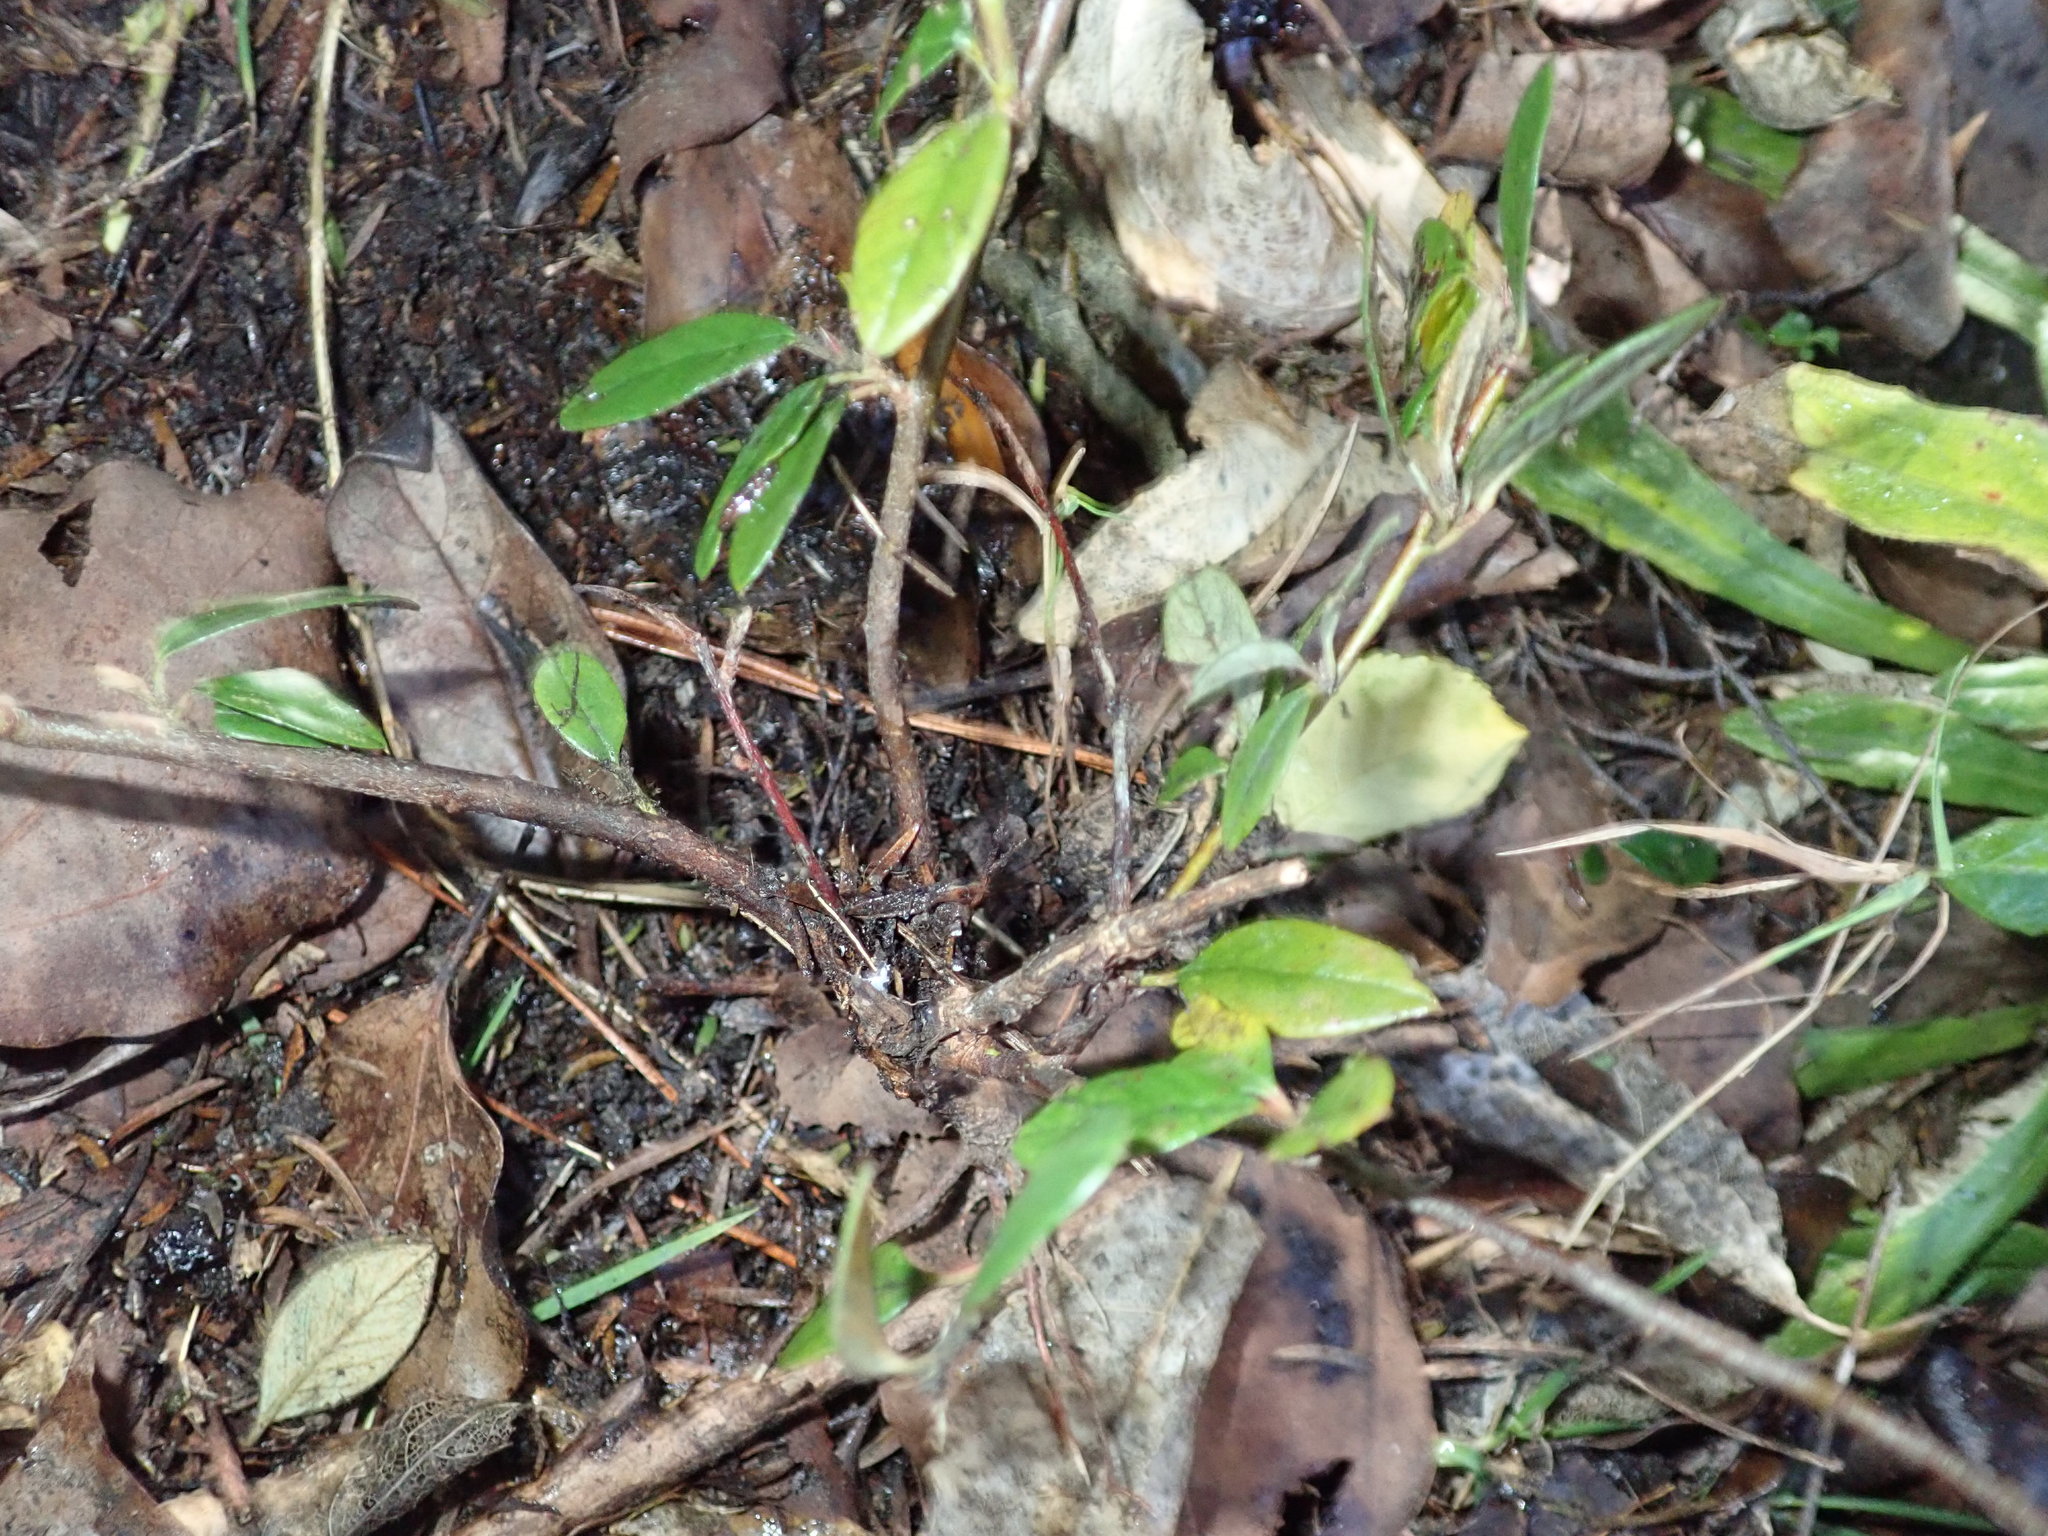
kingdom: Plantae
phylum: Tracheophyta
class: Magnoliopsida
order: Rosales
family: Rosaceae
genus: Cotoneaster
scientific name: Cotoneaster coriaceus
